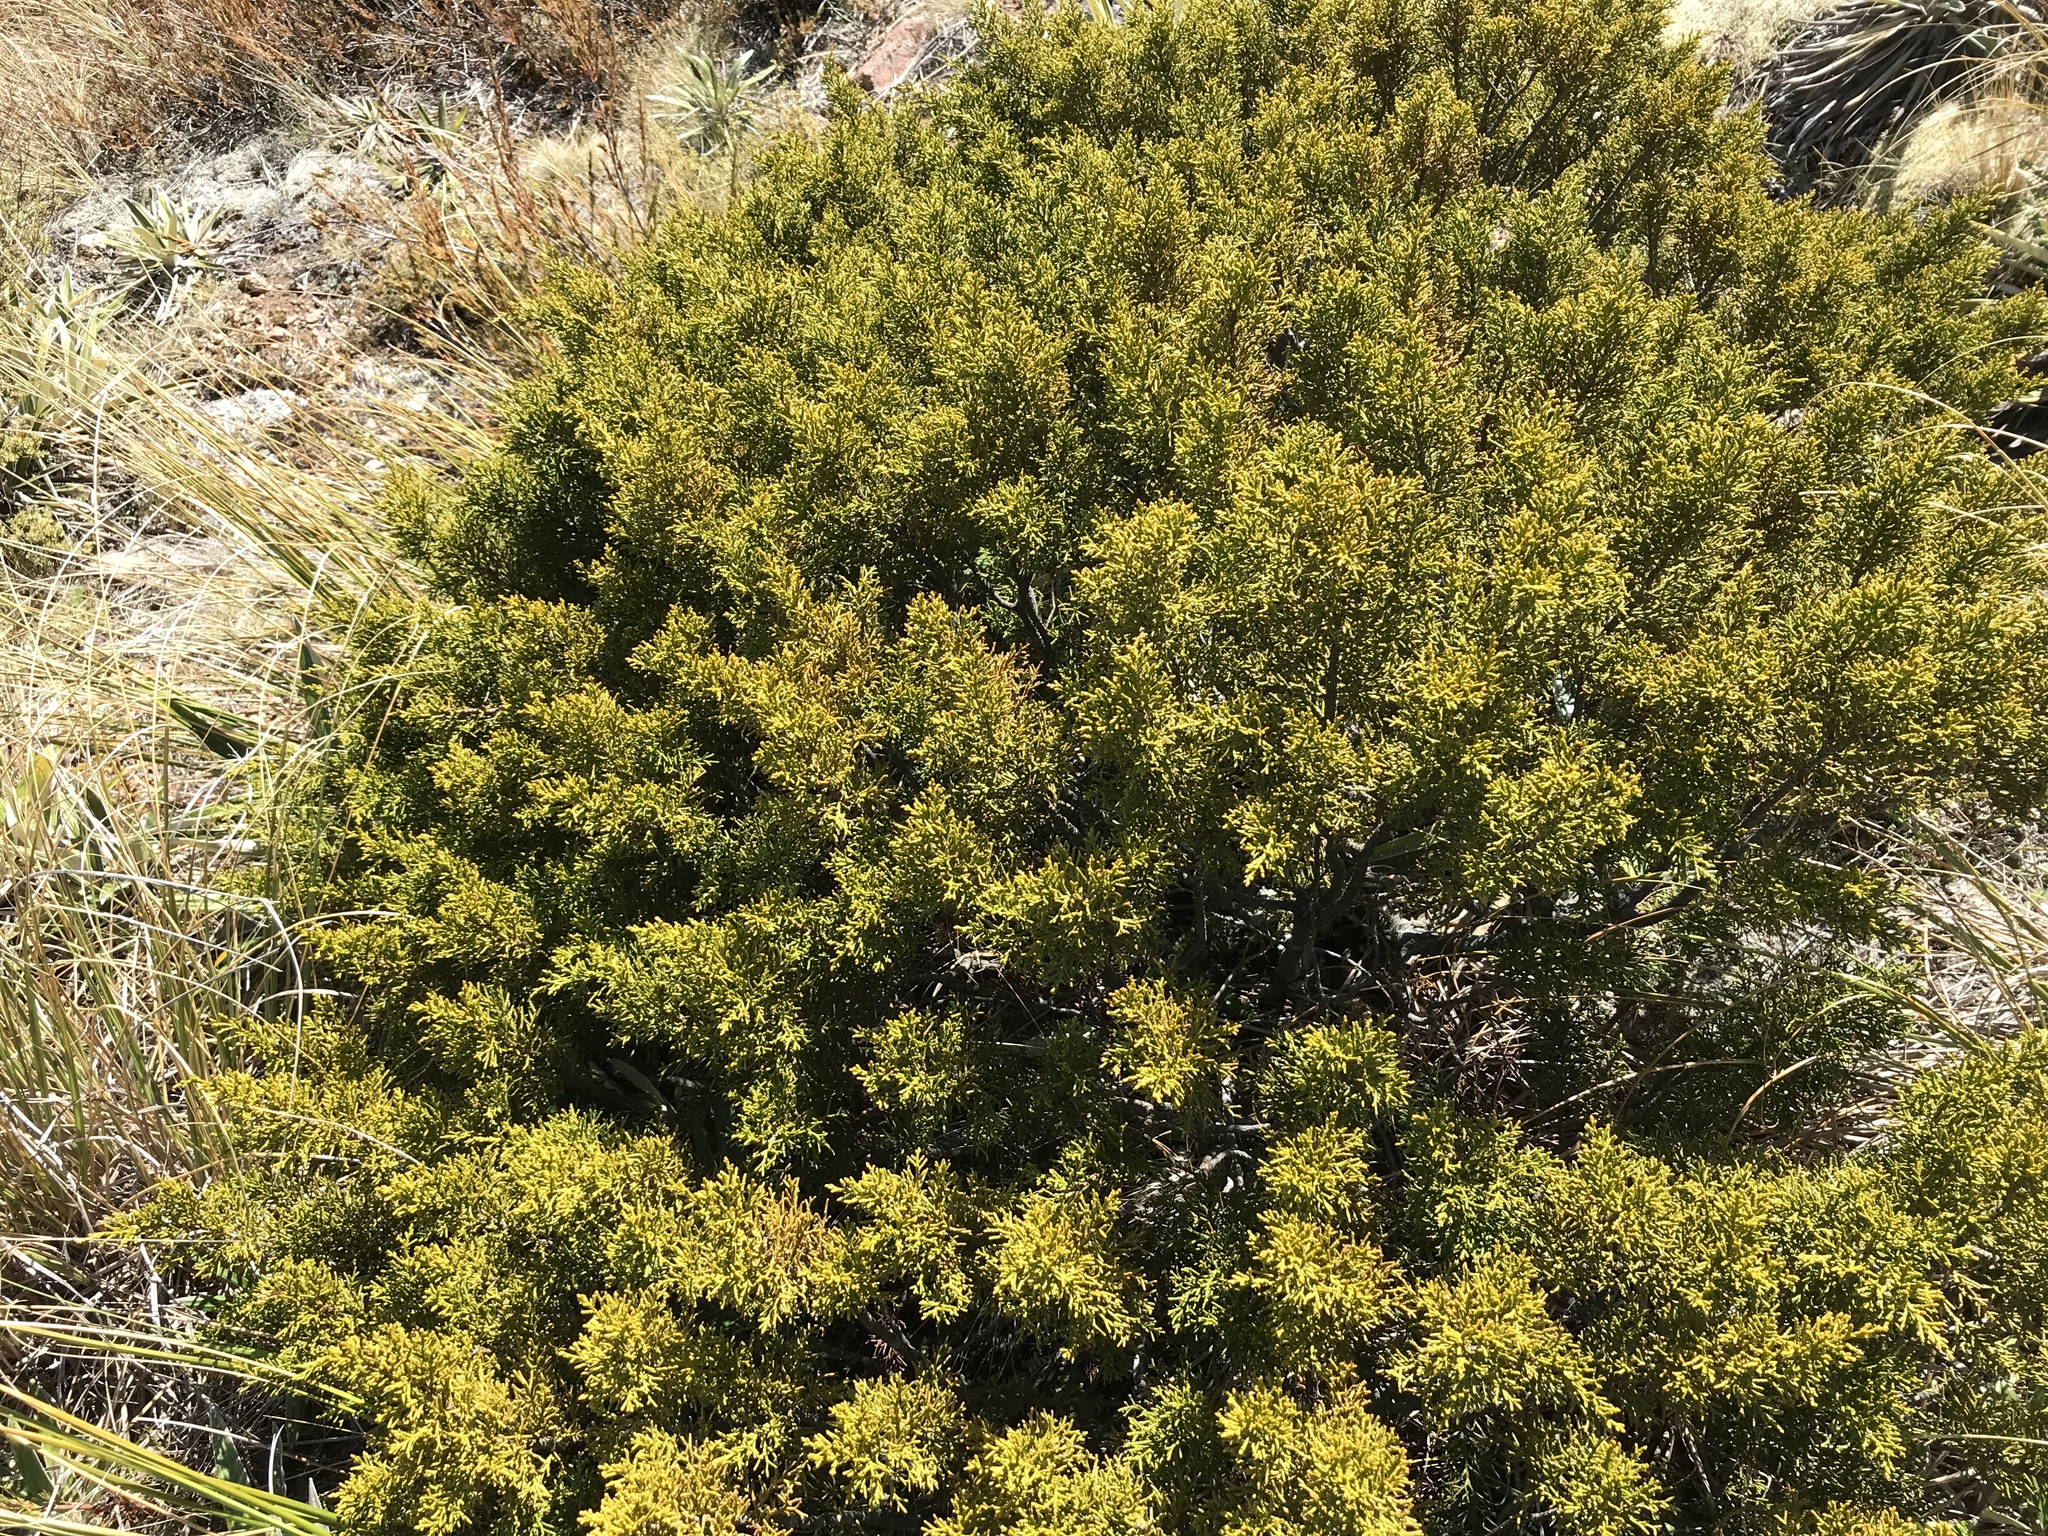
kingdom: Plantae
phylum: Tracheophyta
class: Pinopsida
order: Pinales
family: Podocarpaceae
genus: Halocarpus
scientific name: Halocarpus bidwillii
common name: Bog pine
